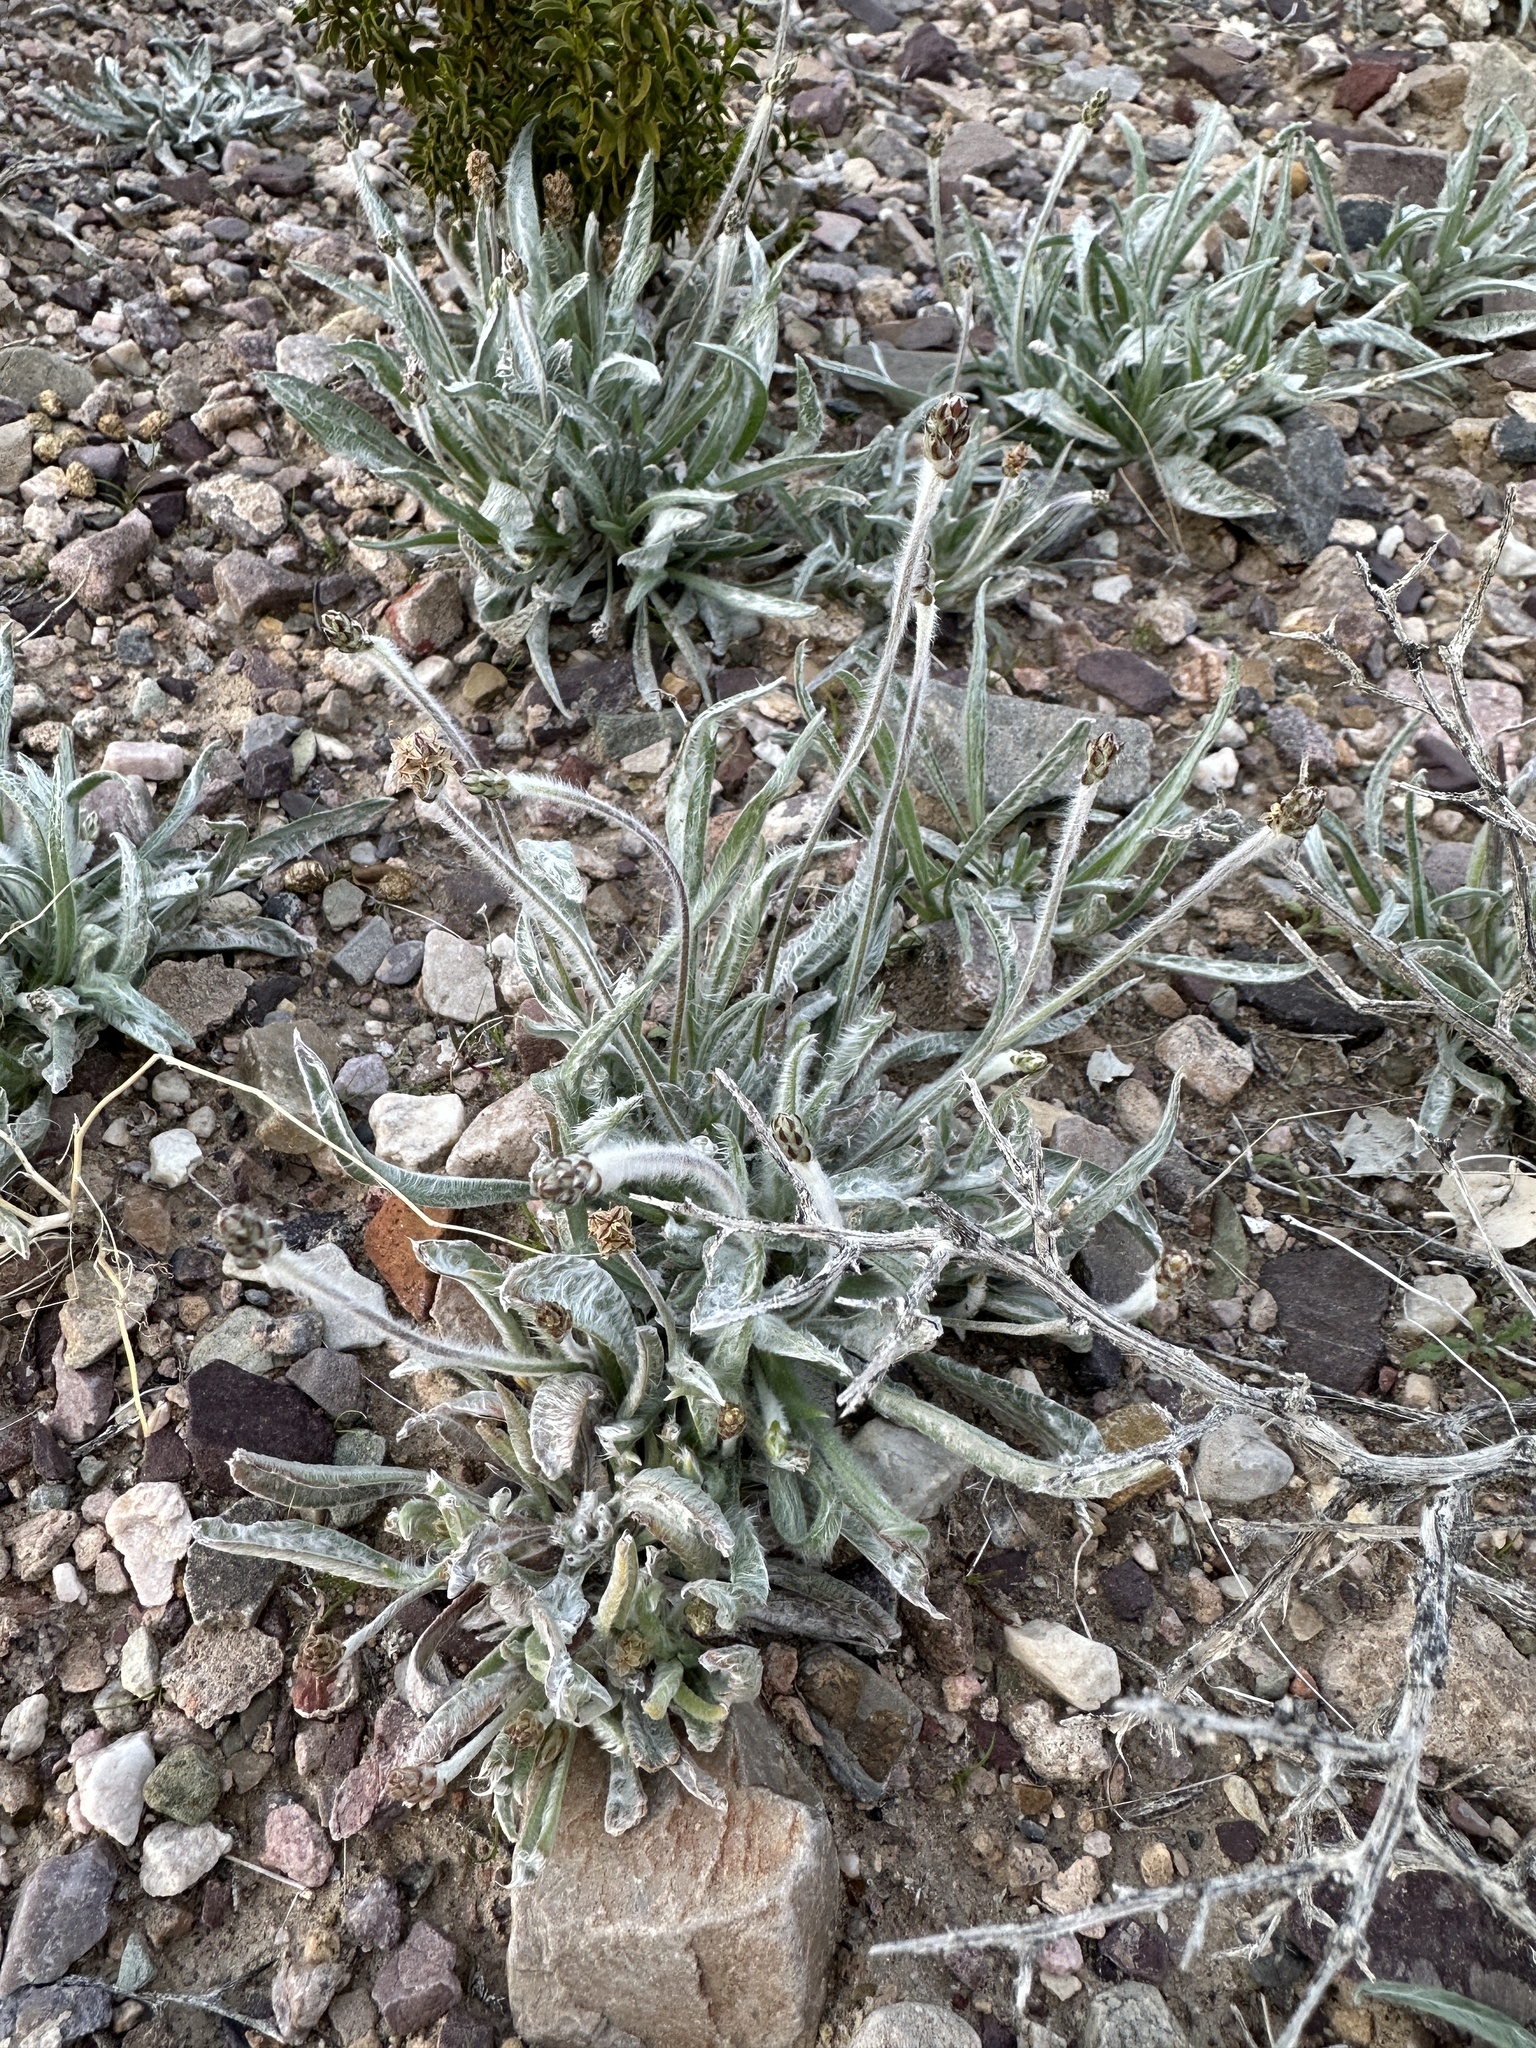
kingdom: Plantae
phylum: Tracheophyta
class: Magnoliopsida
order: Lamiales
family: Plantaginaceae
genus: Plantago
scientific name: Plantago ovata
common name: Blond plantain
